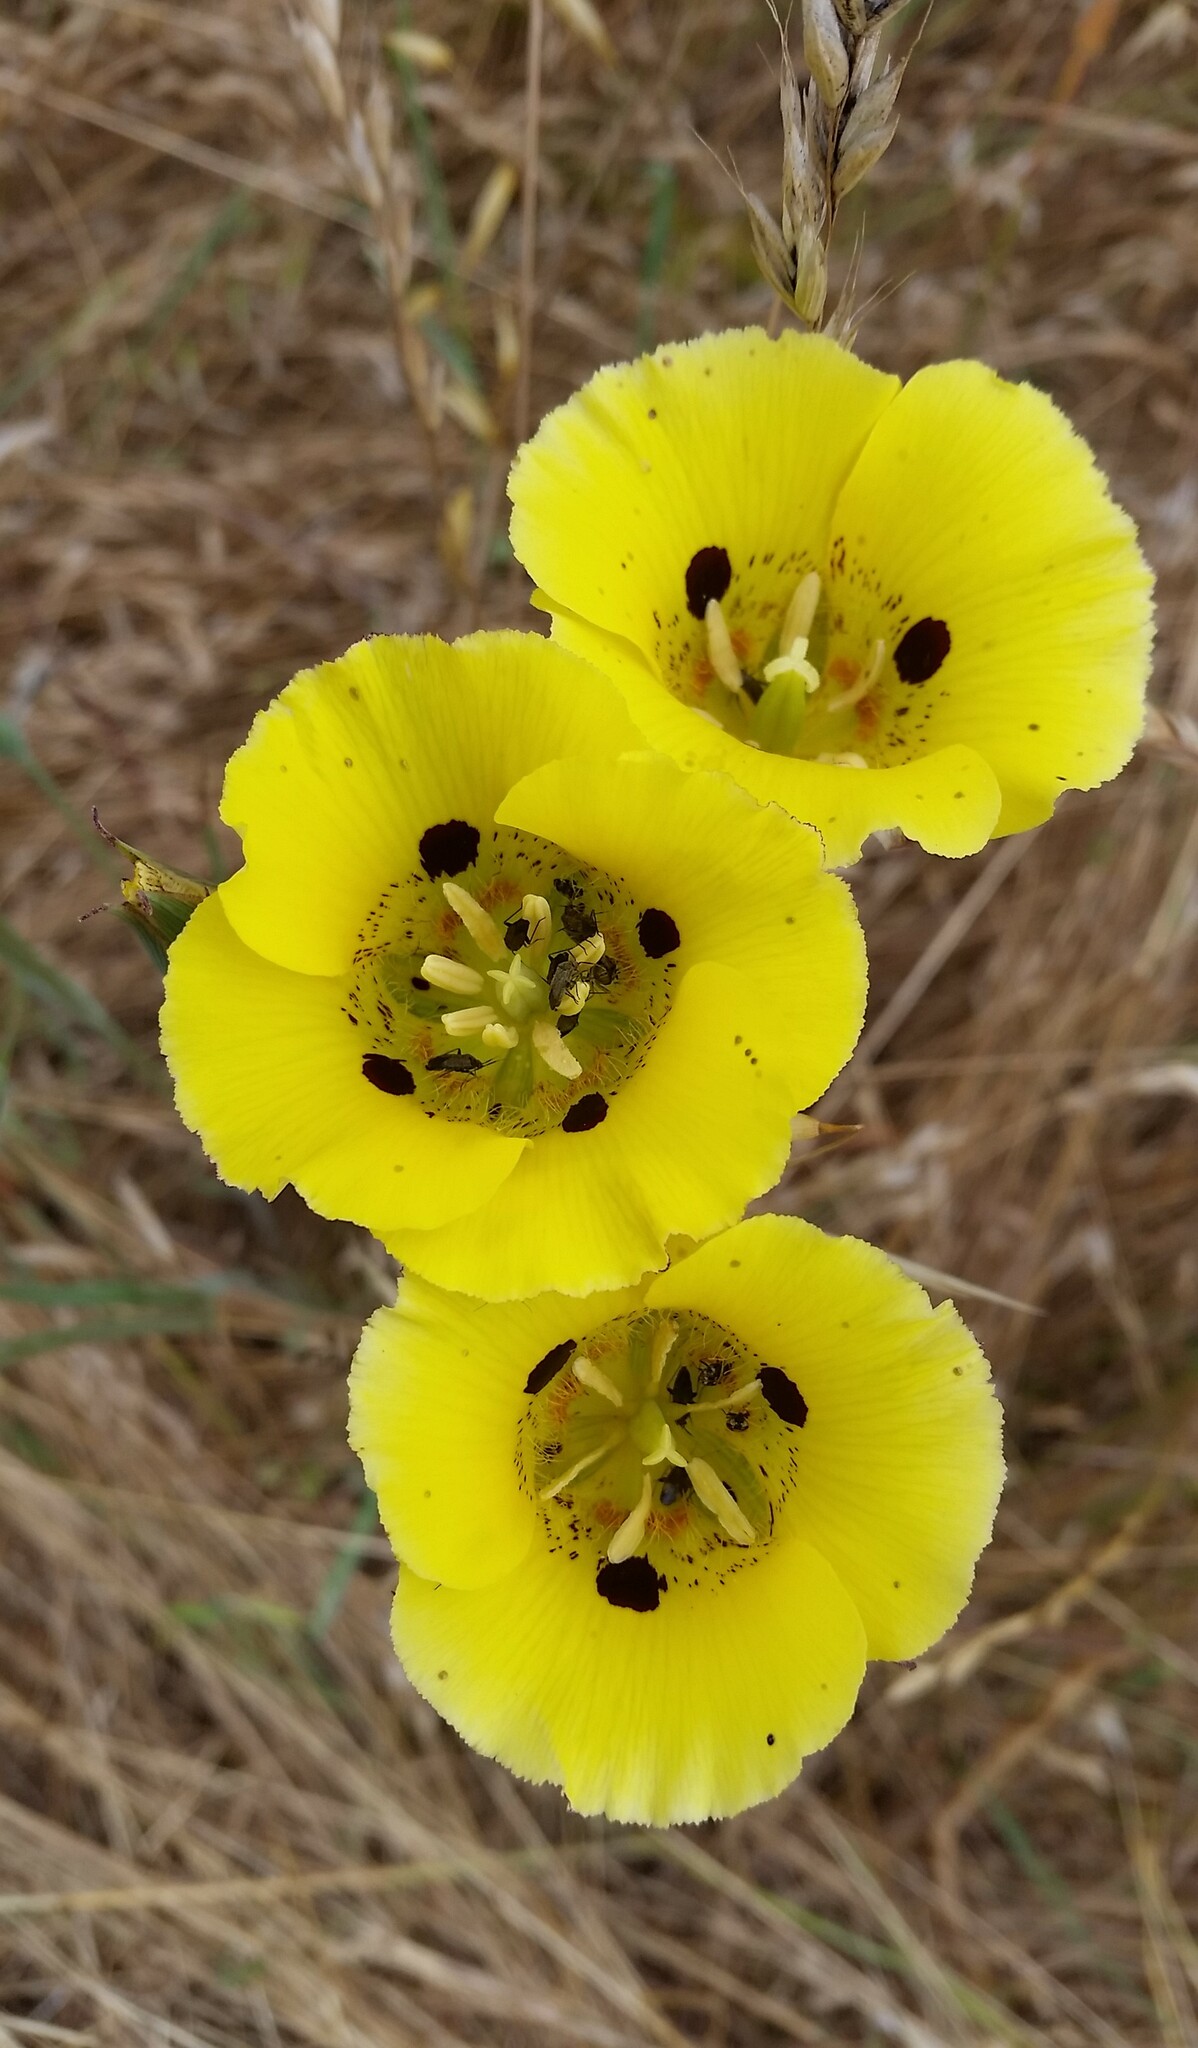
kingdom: Plantae
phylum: Tracheophyta
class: Liliopsida
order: Liliales
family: Liliaceae
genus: Calochortus
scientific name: Calochortus luteus
